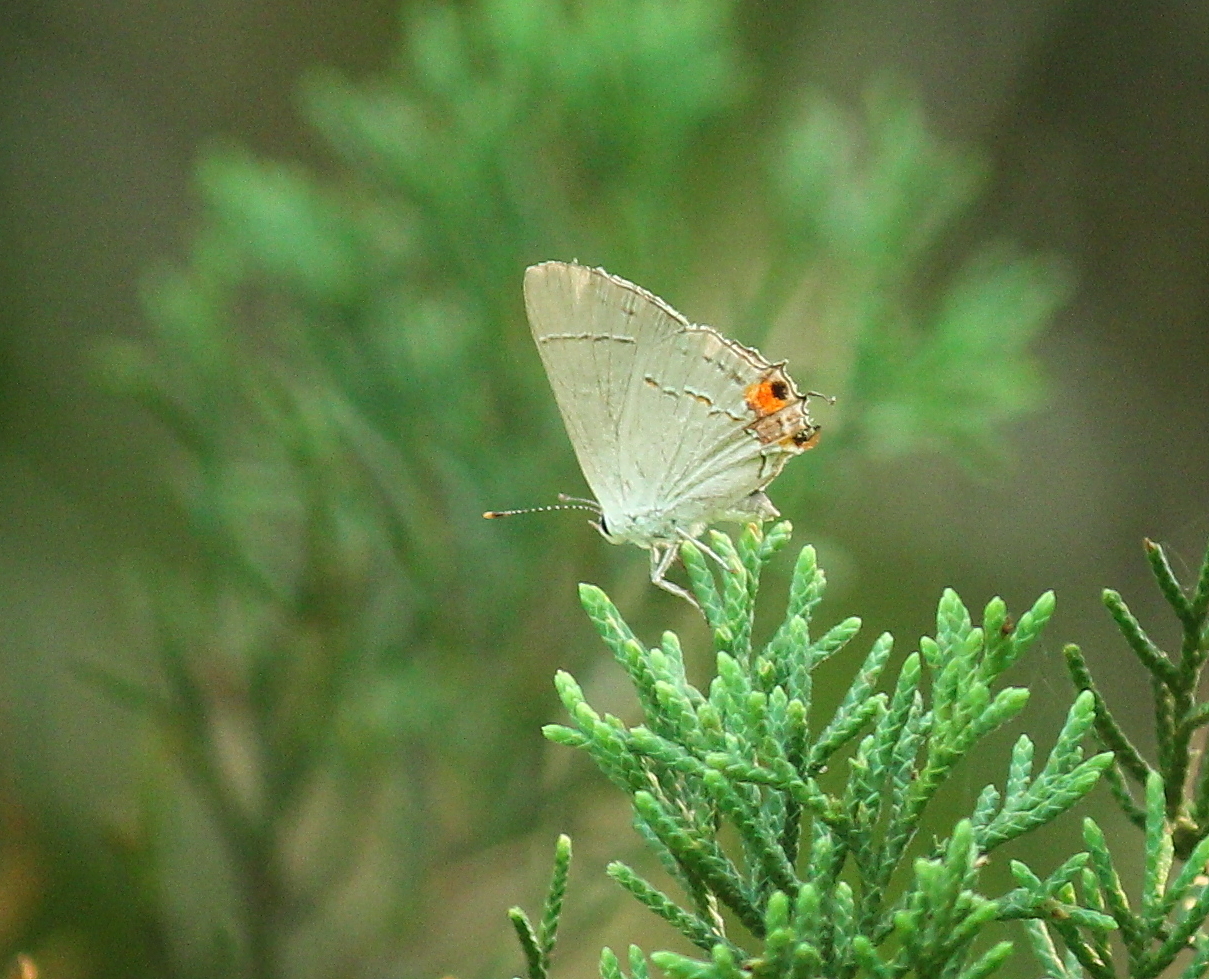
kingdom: Animalia
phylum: Arthropoda
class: Insecta
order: Lepidoptera
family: Lycaenidae
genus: Strymon
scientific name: Strymon melinus
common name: Gray hairstreak
